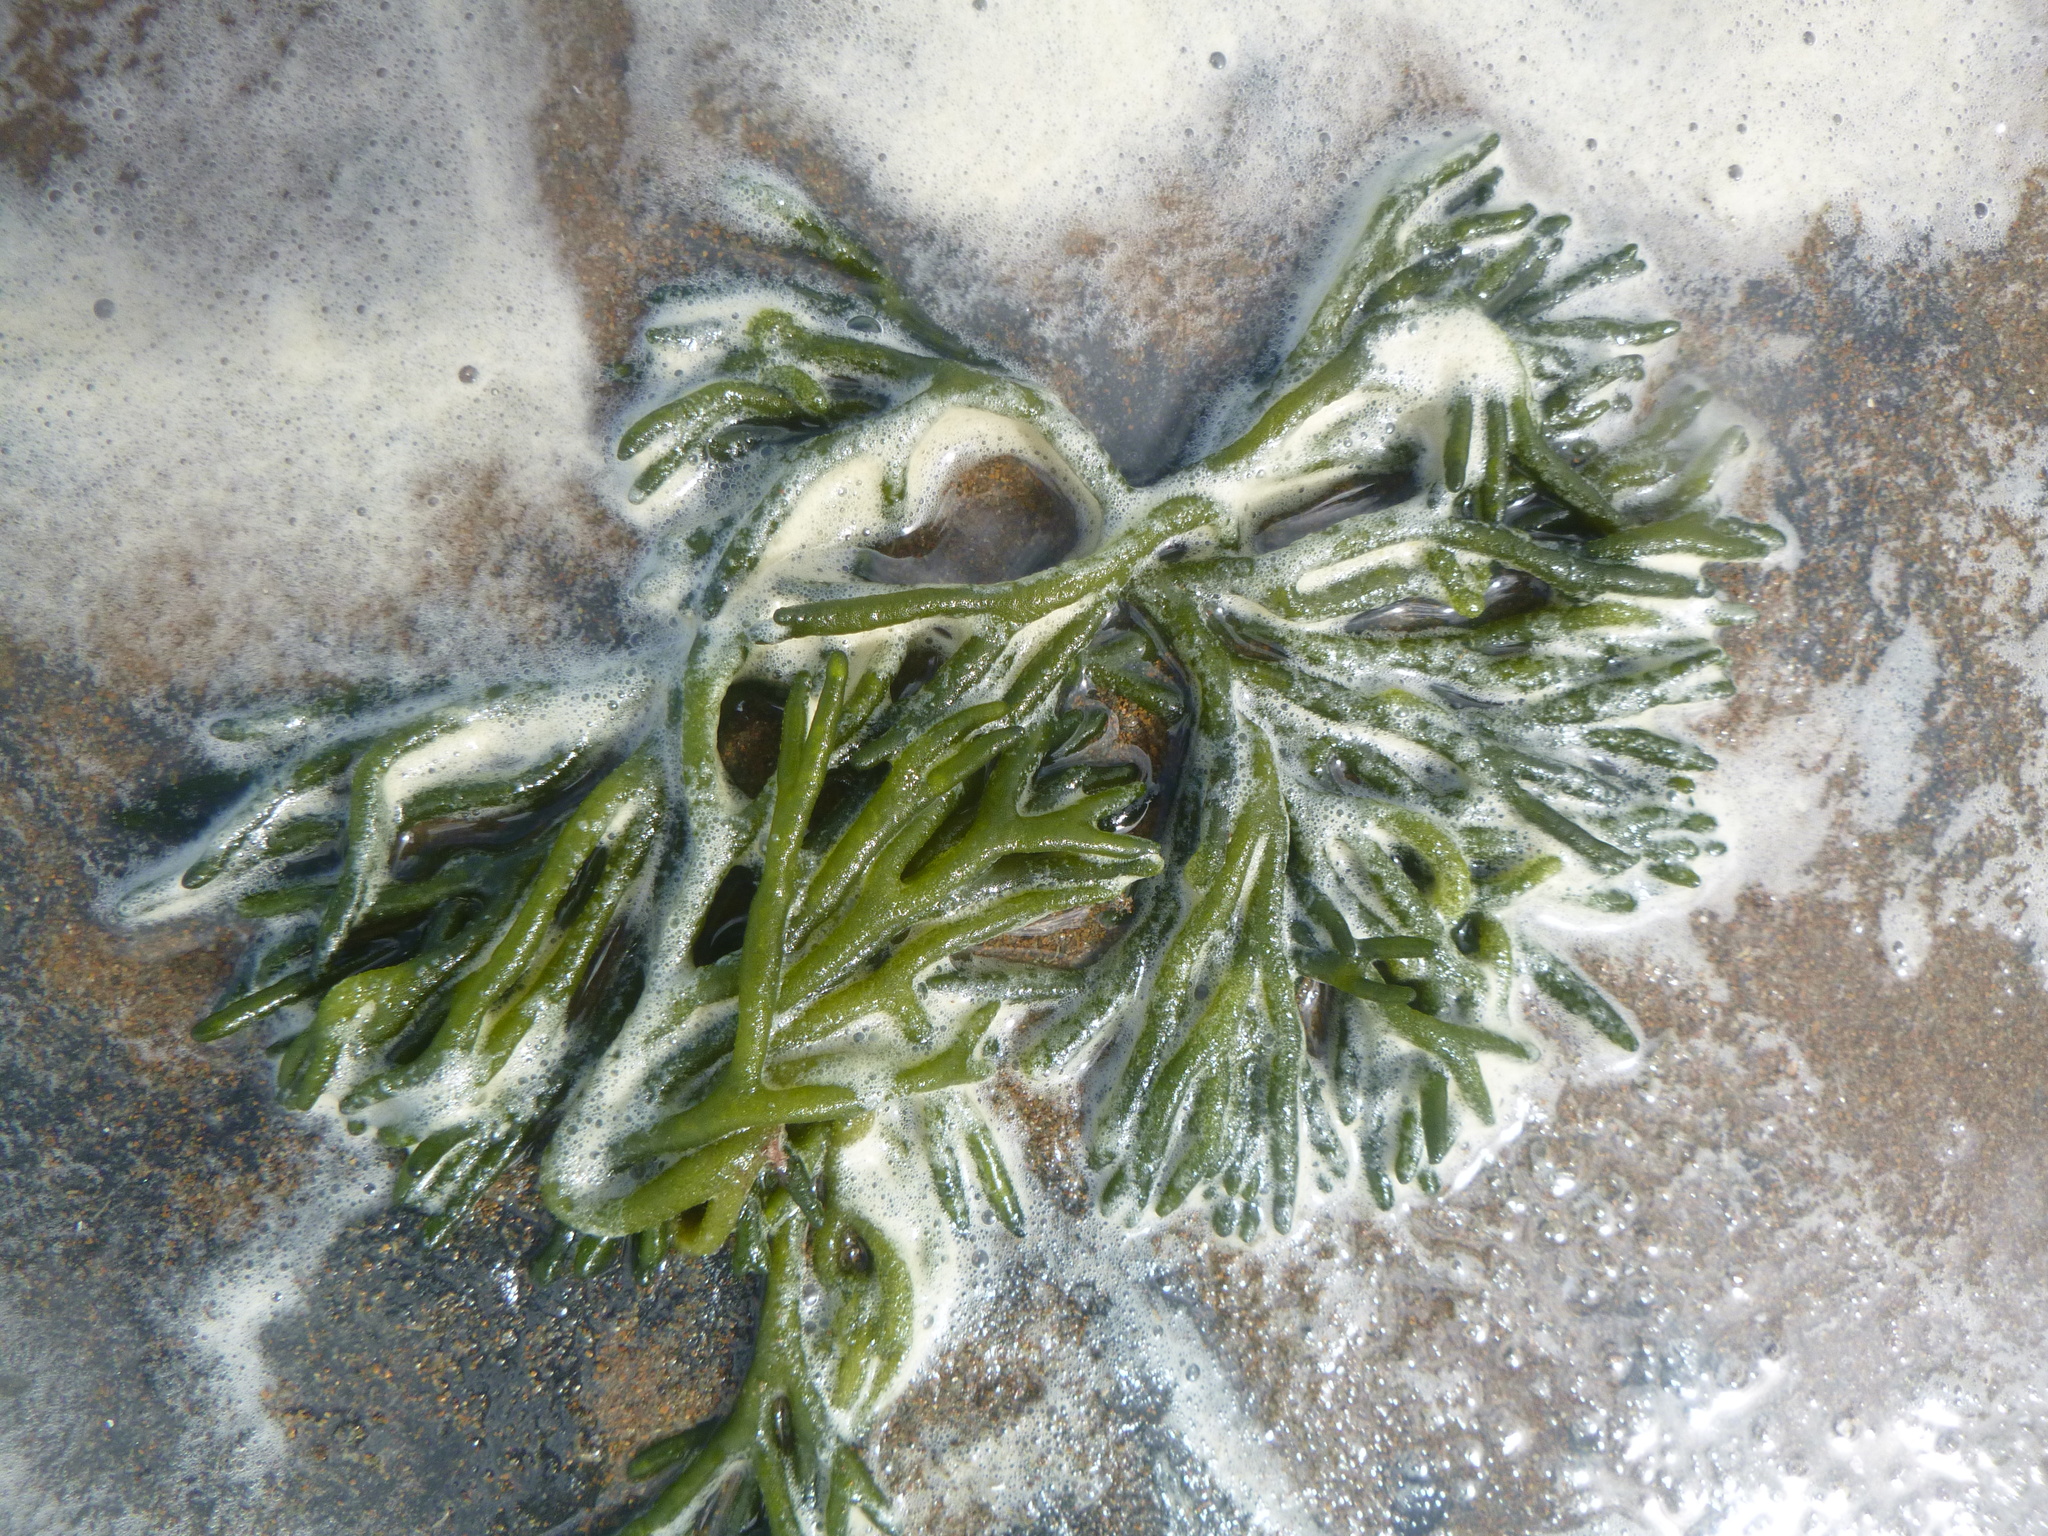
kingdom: Plantae
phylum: Chlorophyta
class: Ulvophyceae
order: Bryopsidales
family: Codiaceae
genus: Codium
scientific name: Codium fragile
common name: Dead man's fingers
